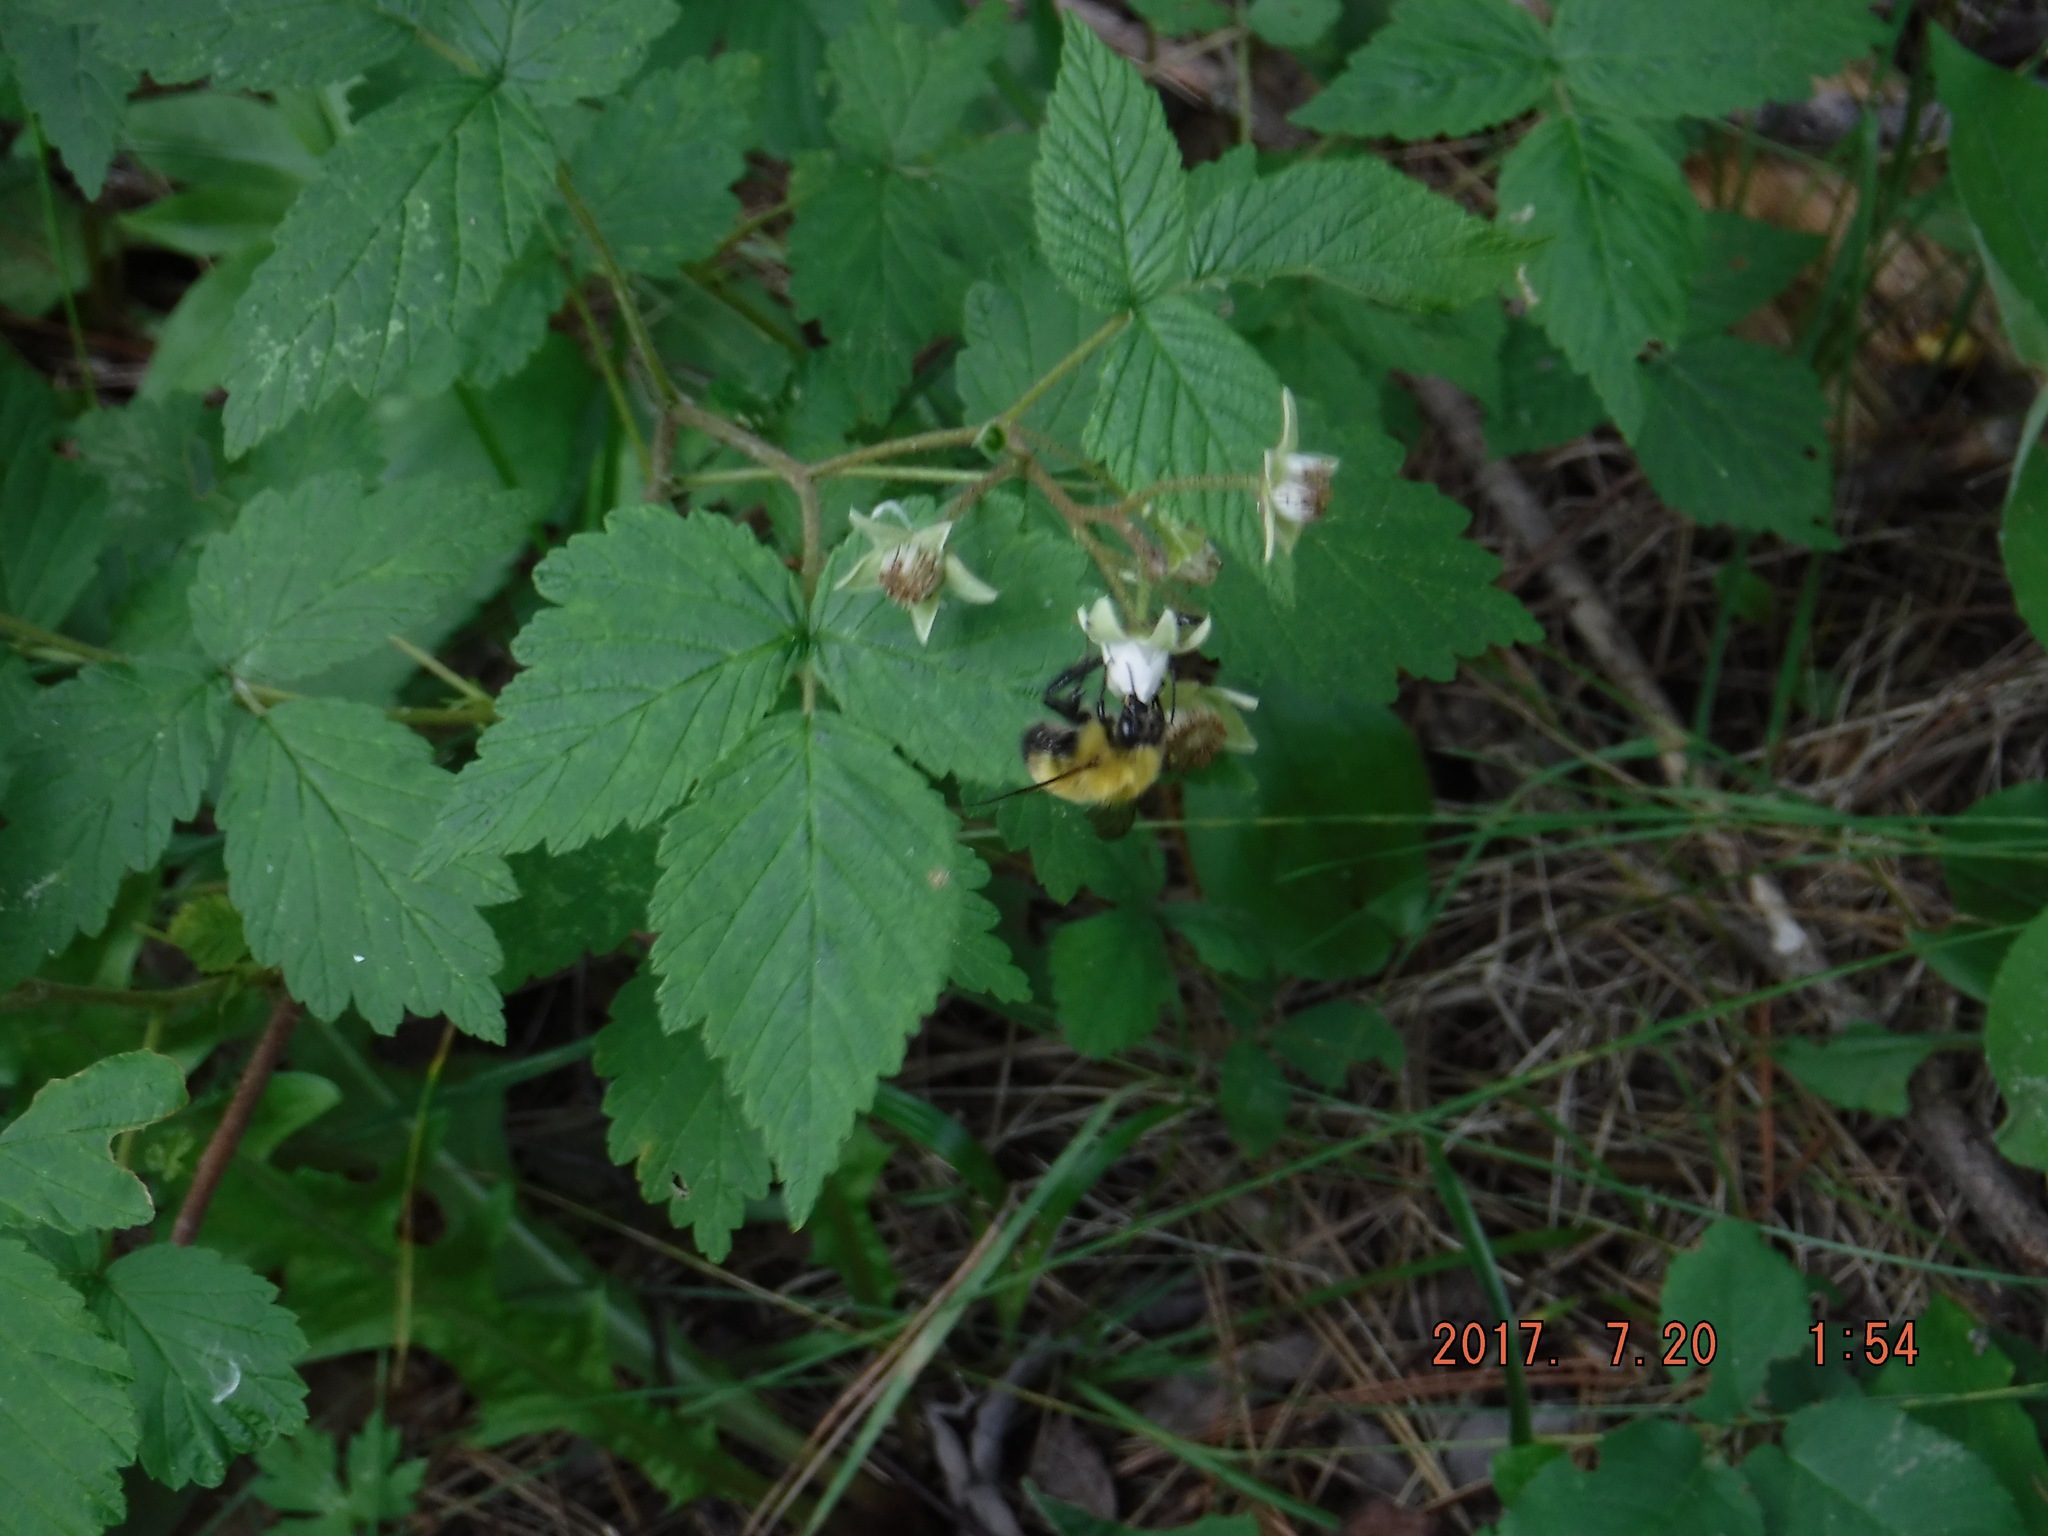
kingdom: Animalia
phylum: Arthropoda
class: Insecta
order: Hymenoptera
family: Apidae
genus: Bombus
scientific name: Bombus perplexus
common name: Confusing bumble bee
